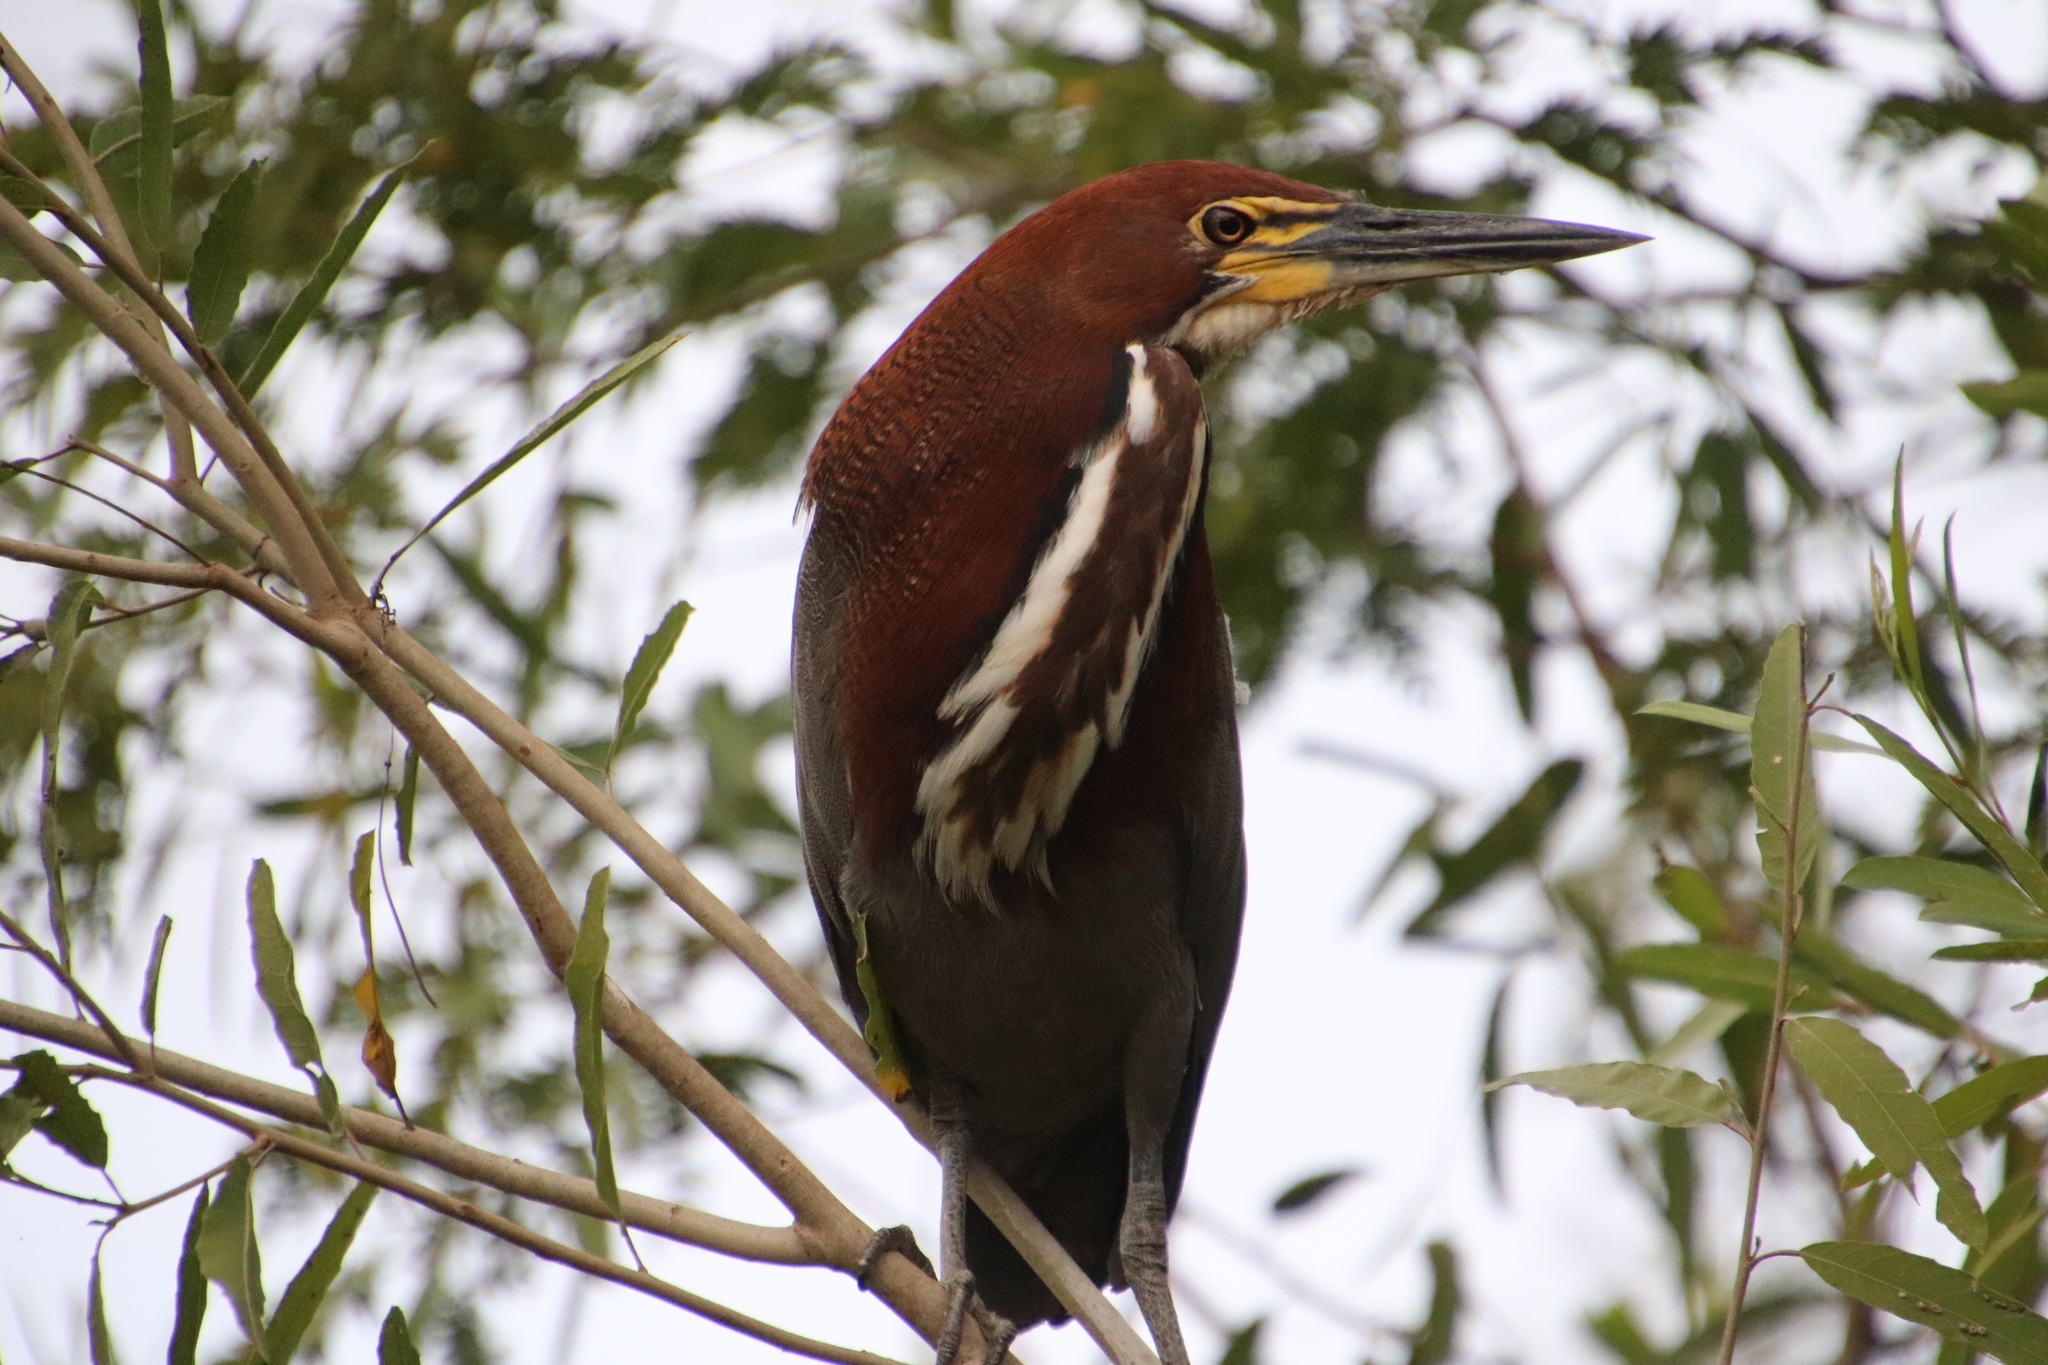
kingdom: Animalia
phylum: Chordata
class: Aves
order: Pelecaniformes
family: Ardeidae
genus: Tigrisoma
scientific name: Tigrisoma lineatum
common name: Rufescent tiger-heron
